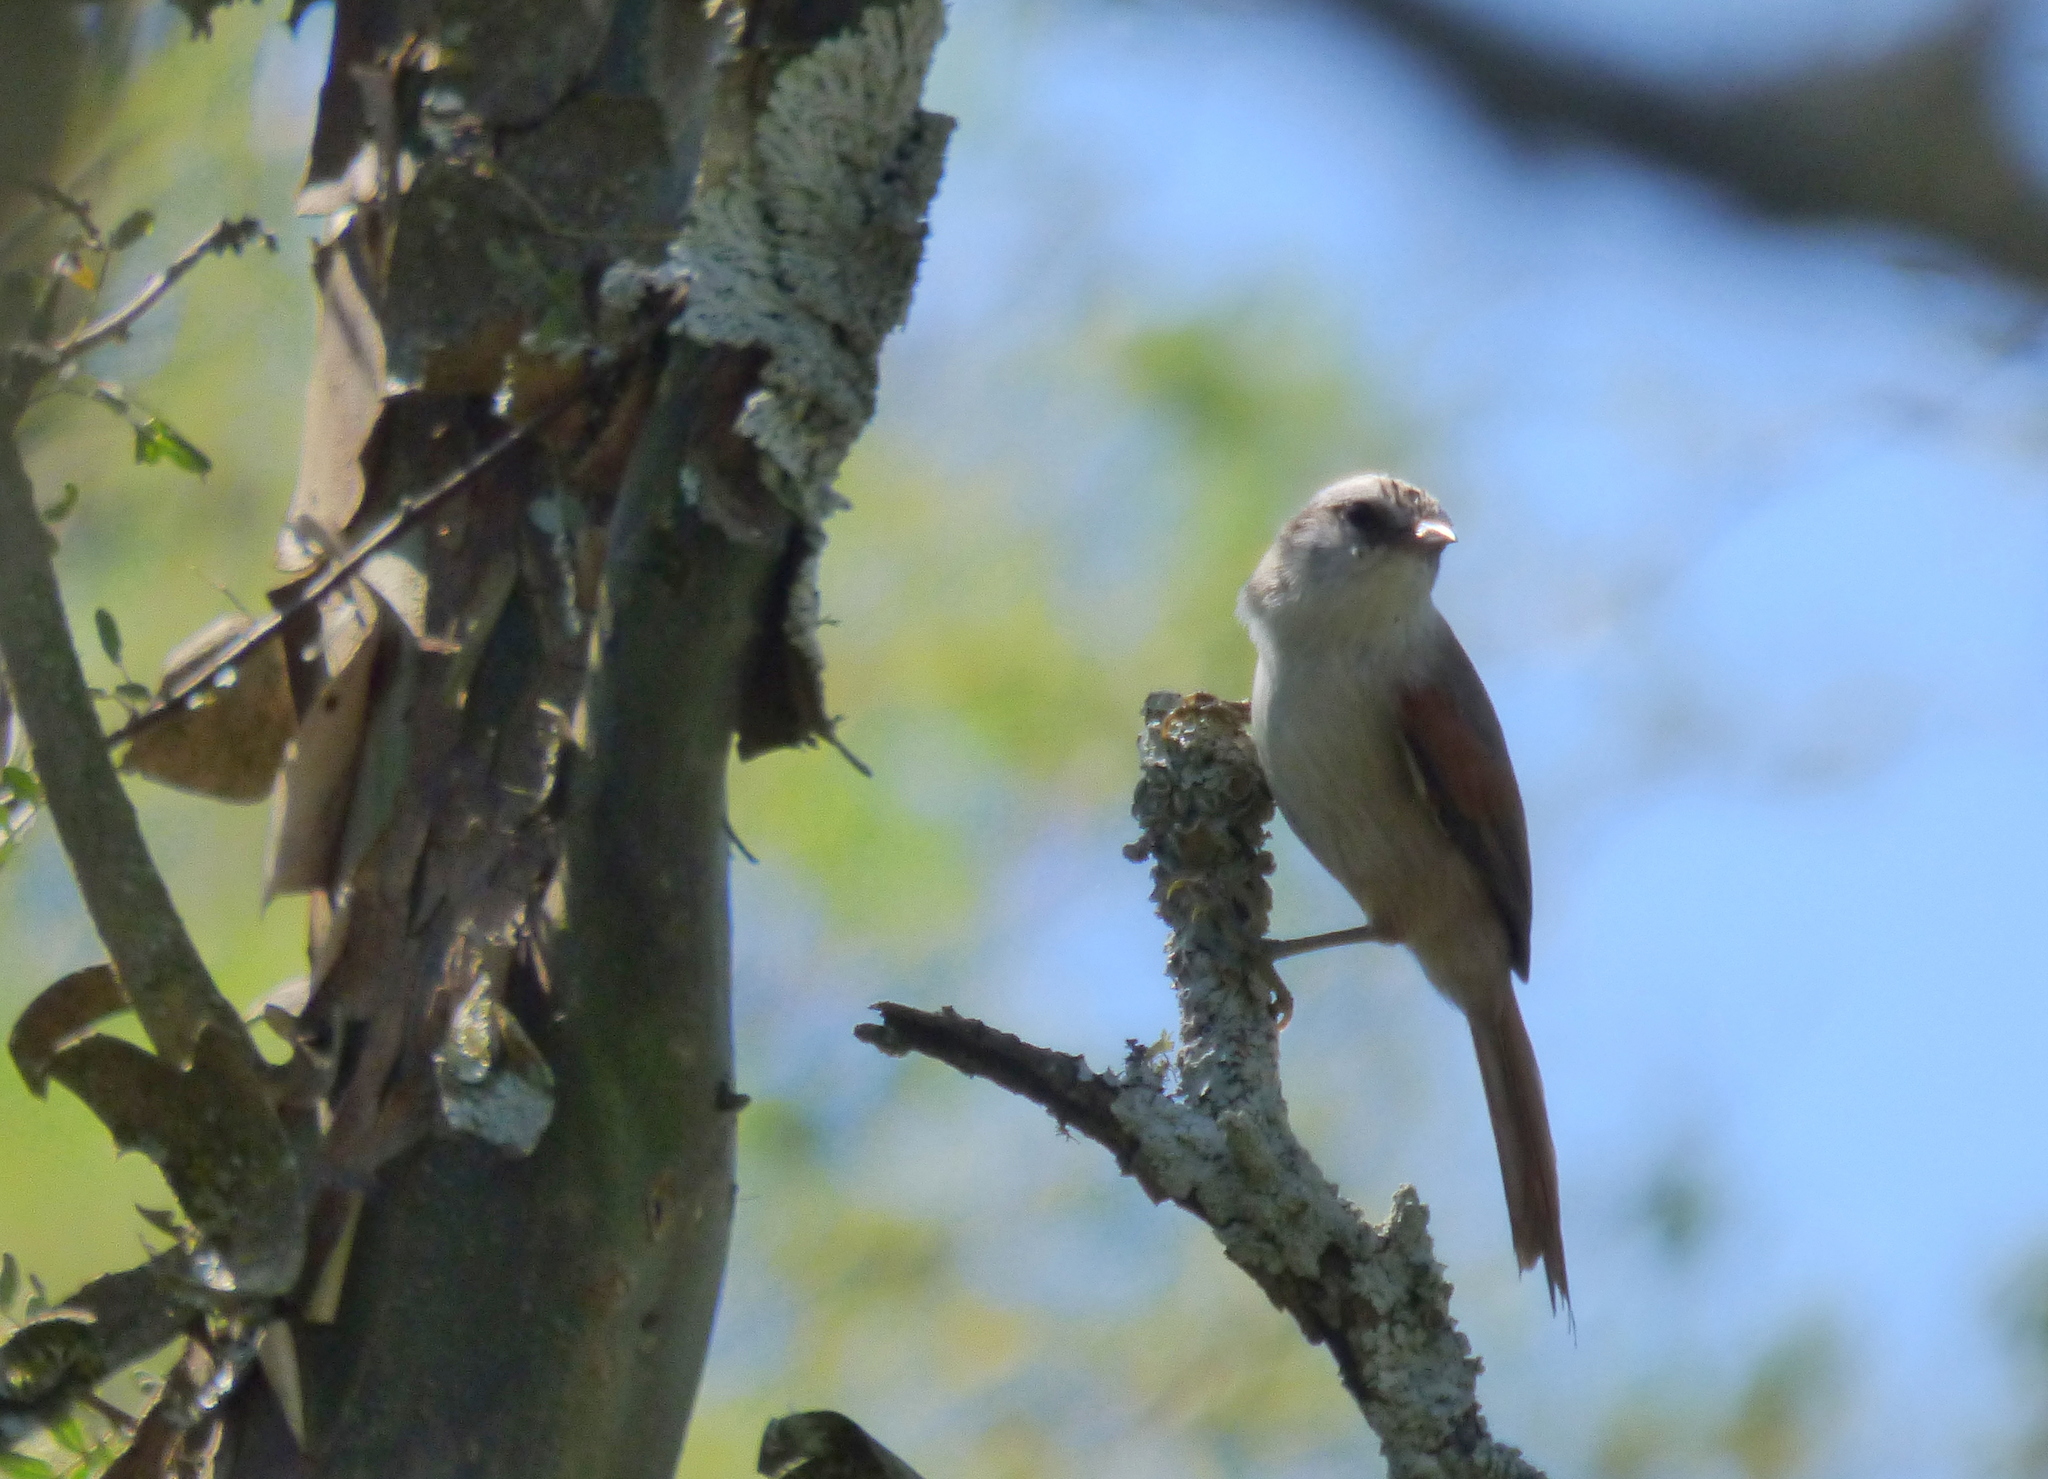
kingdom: Animalia
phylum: Chordata
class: Aves
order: Passeriformes
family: Furnariidae
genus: Cranioleuca
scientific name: Cranioleuca pyrrhophia
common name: Stripe-crowned spinetail
